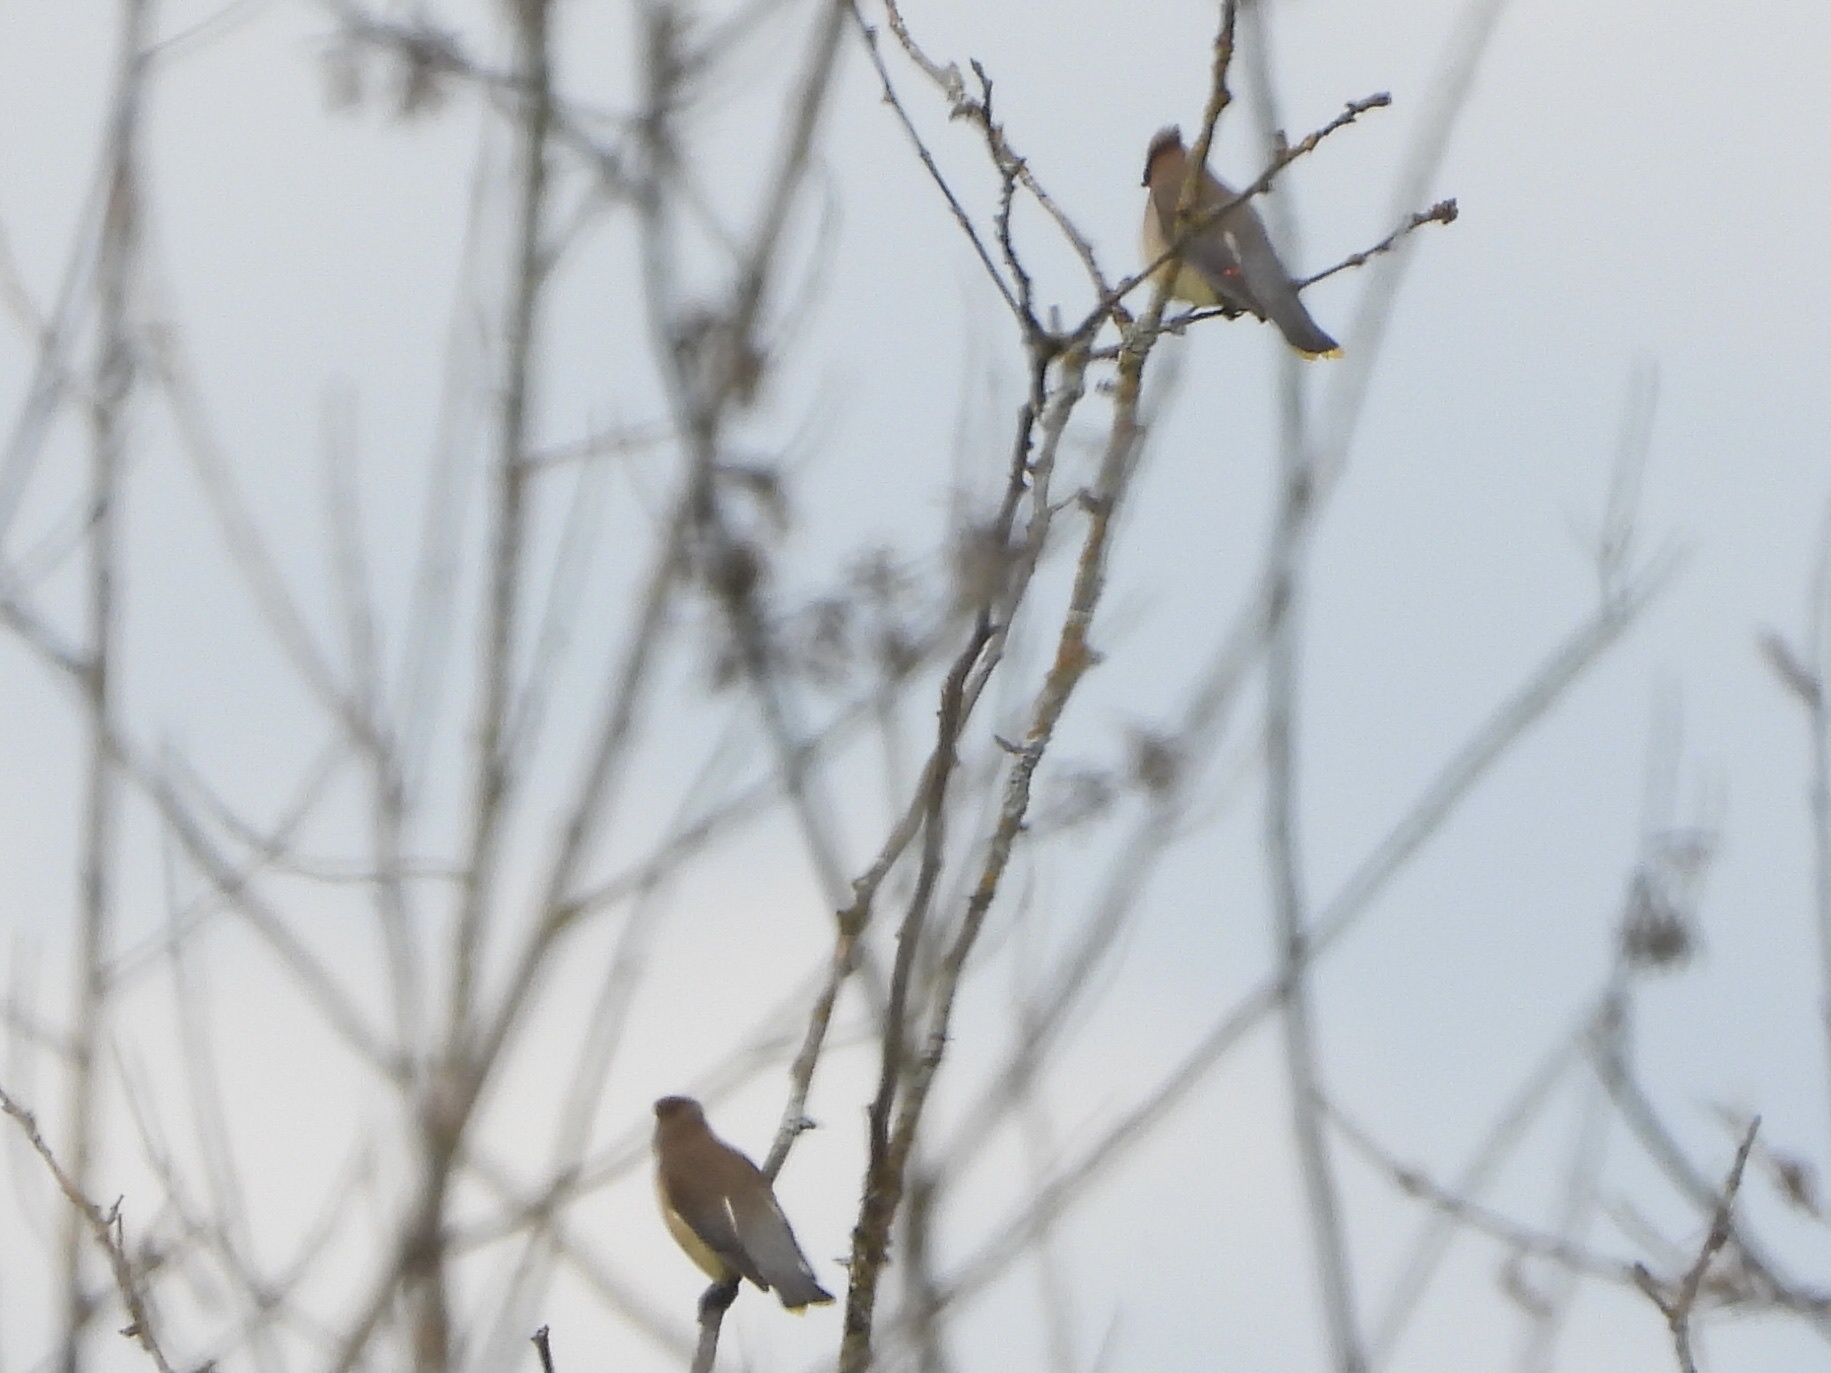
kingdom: Animalia
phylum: Chordata
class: Aves
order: Passeriformes
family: Bombycillidae
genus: Bombycilla
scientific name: Bombycilla cedrorum
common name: Cedar waxwing
